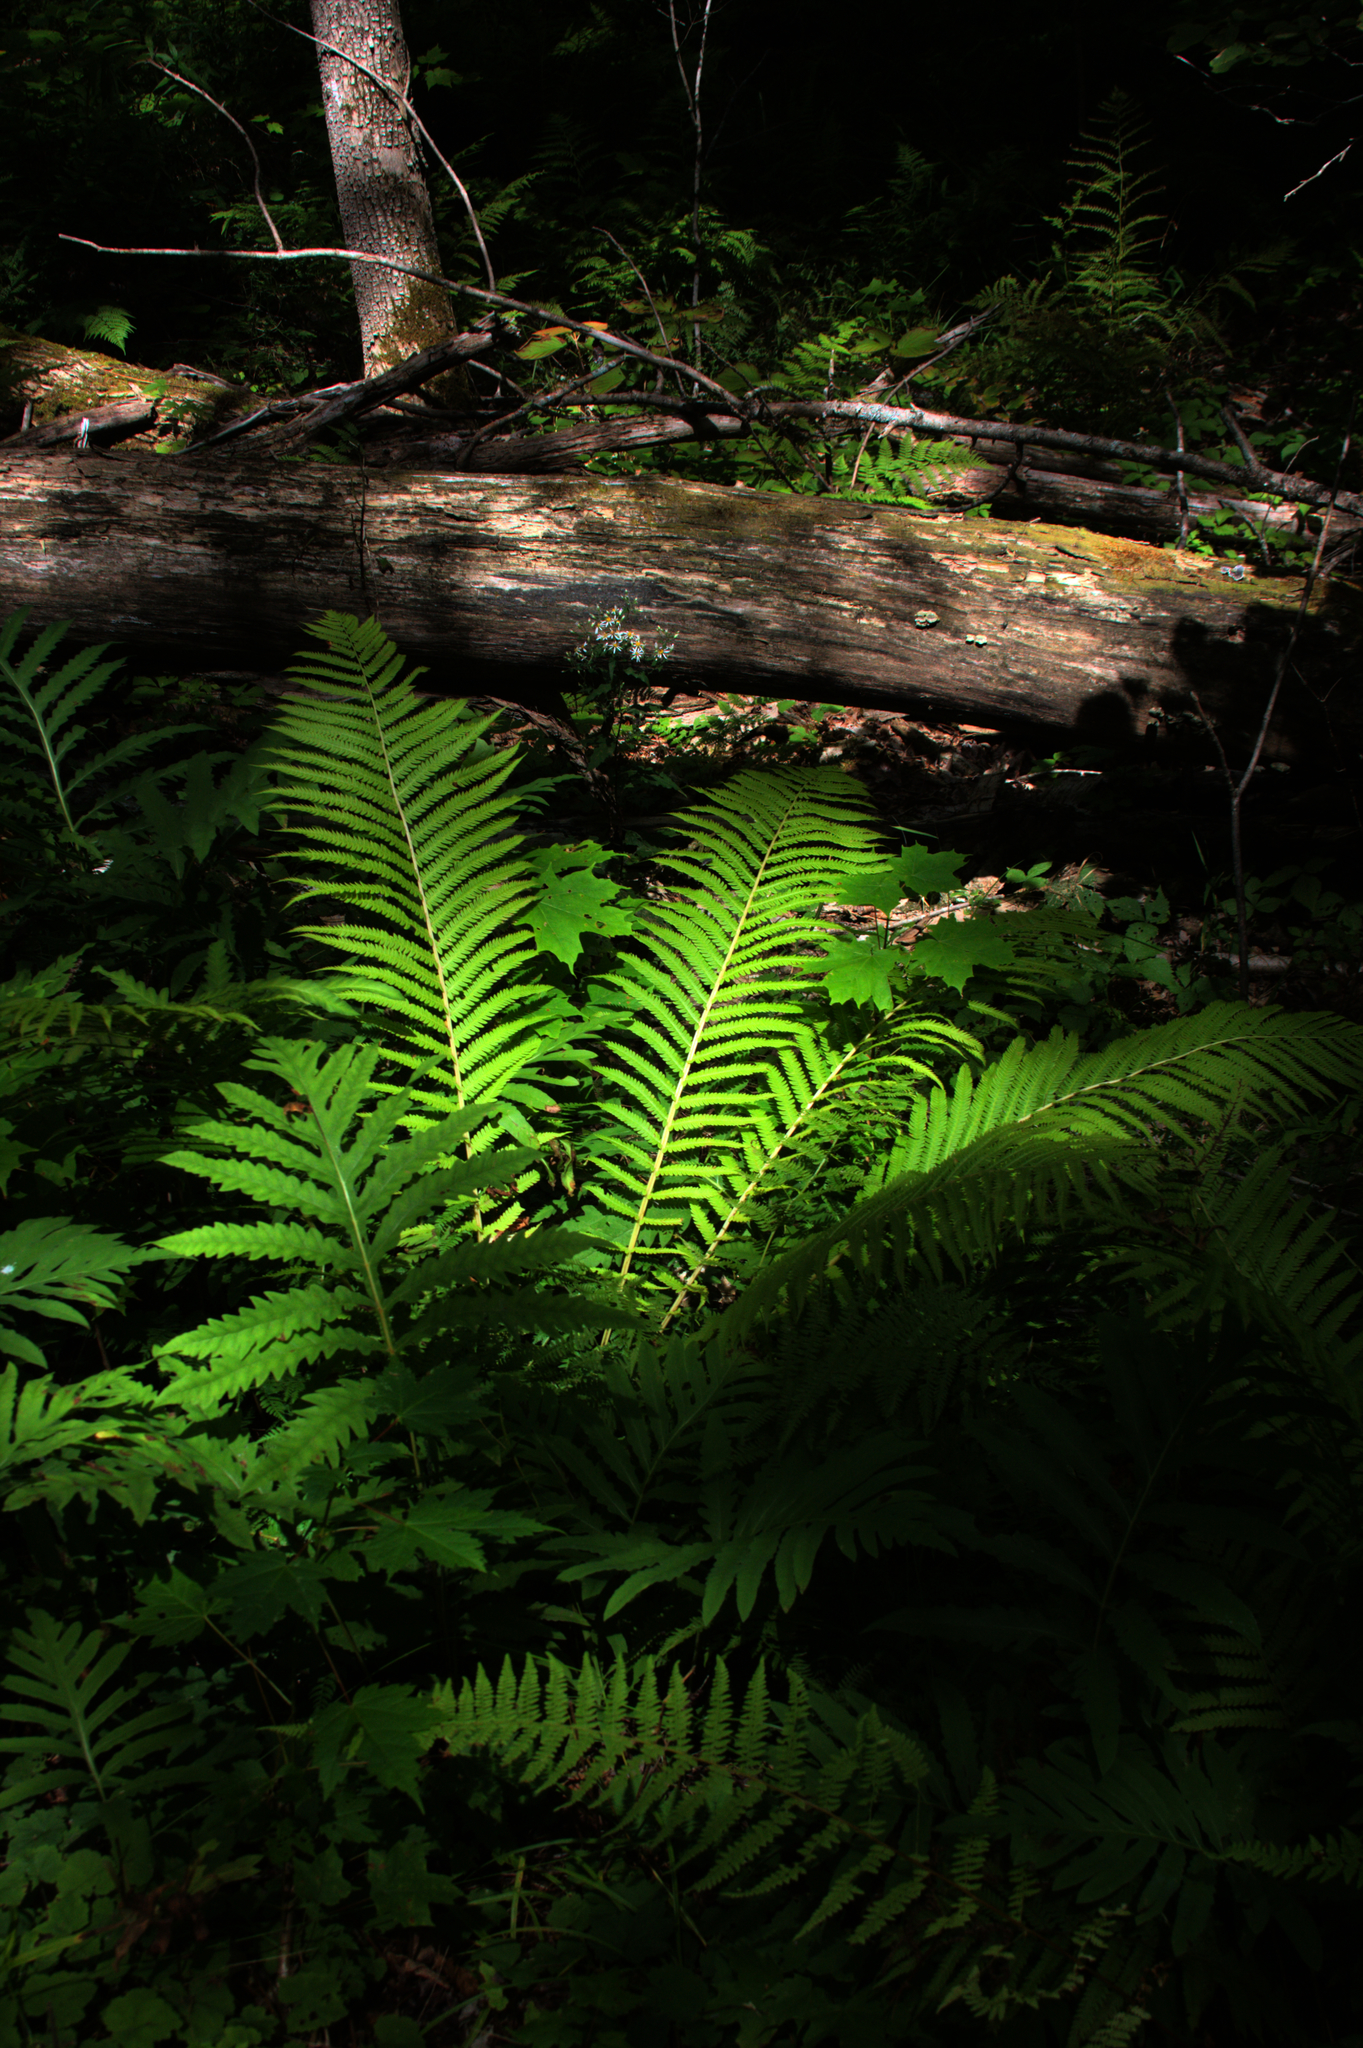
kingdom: Plantae
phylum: Tracheophyta
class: Polypodiopsida
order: Polypodiales
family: Onocleaceae
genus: Matteuccia
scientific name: Matteuccia struthiopteris
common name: Ostrich fern
